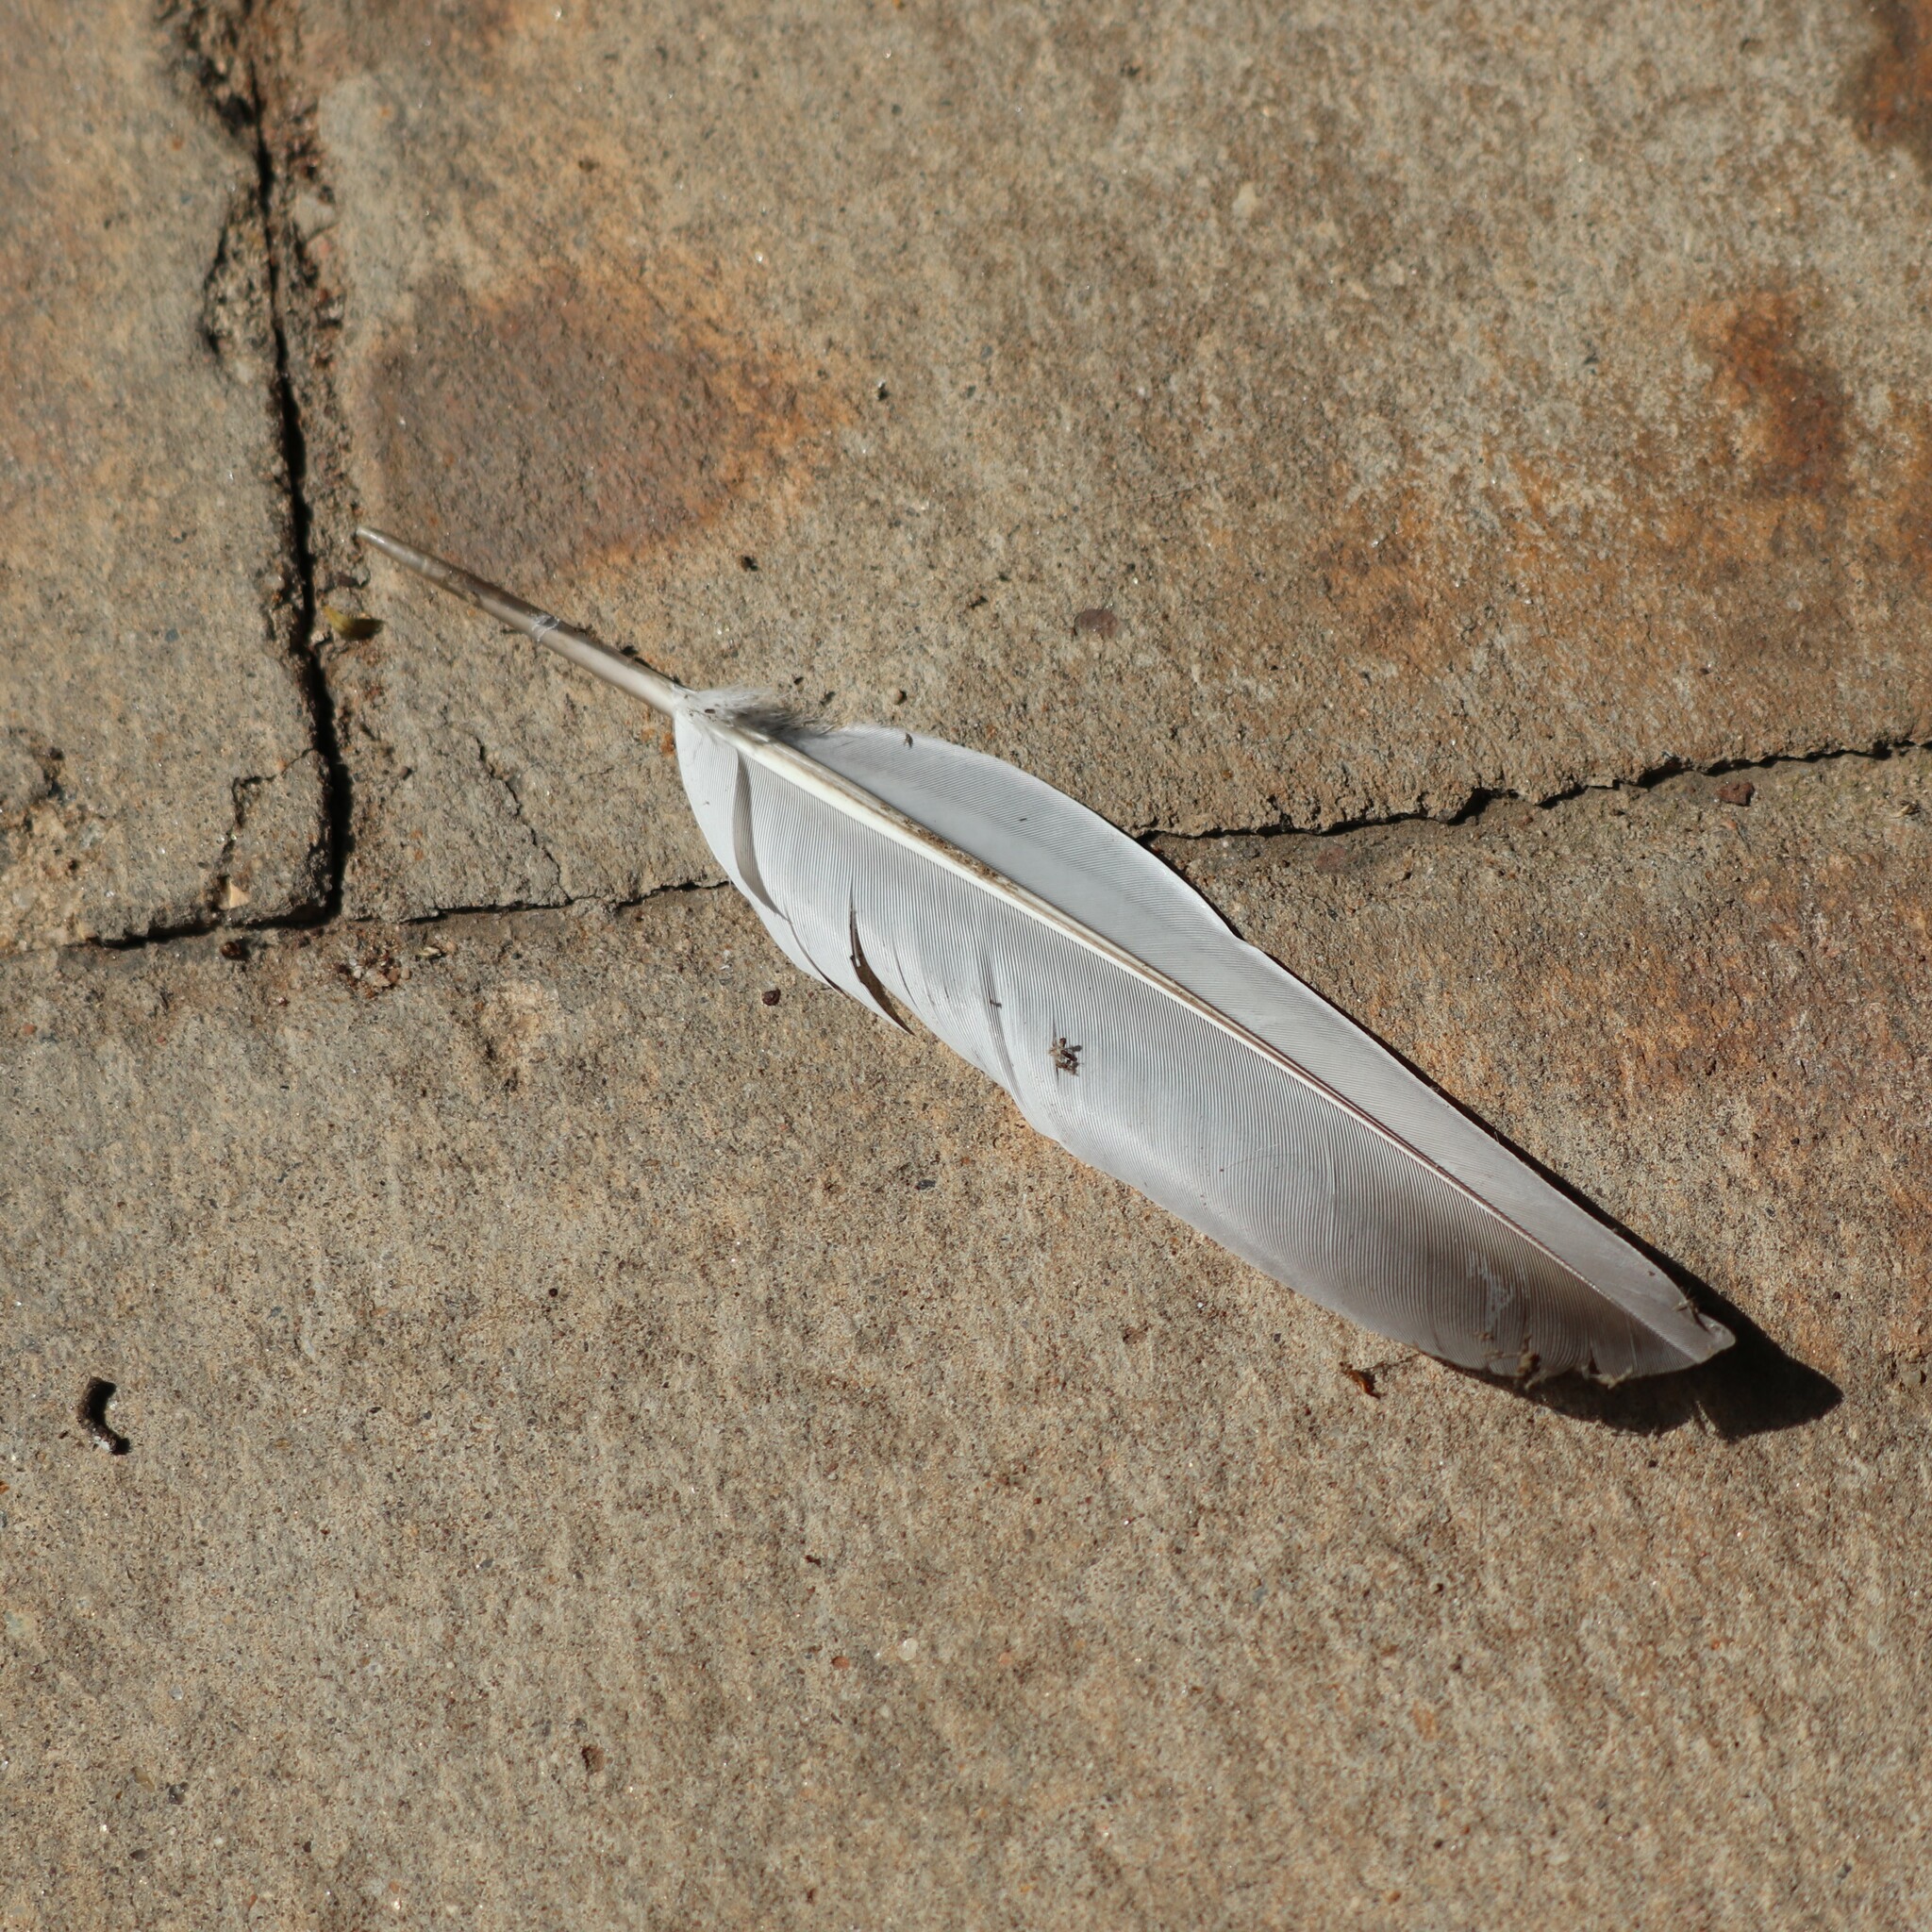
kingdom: Animalia
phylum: Chordata
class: Aves
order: Columbiformes
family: Columbidae
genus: Columba
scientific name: Columba livia
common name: Rock pigeon
